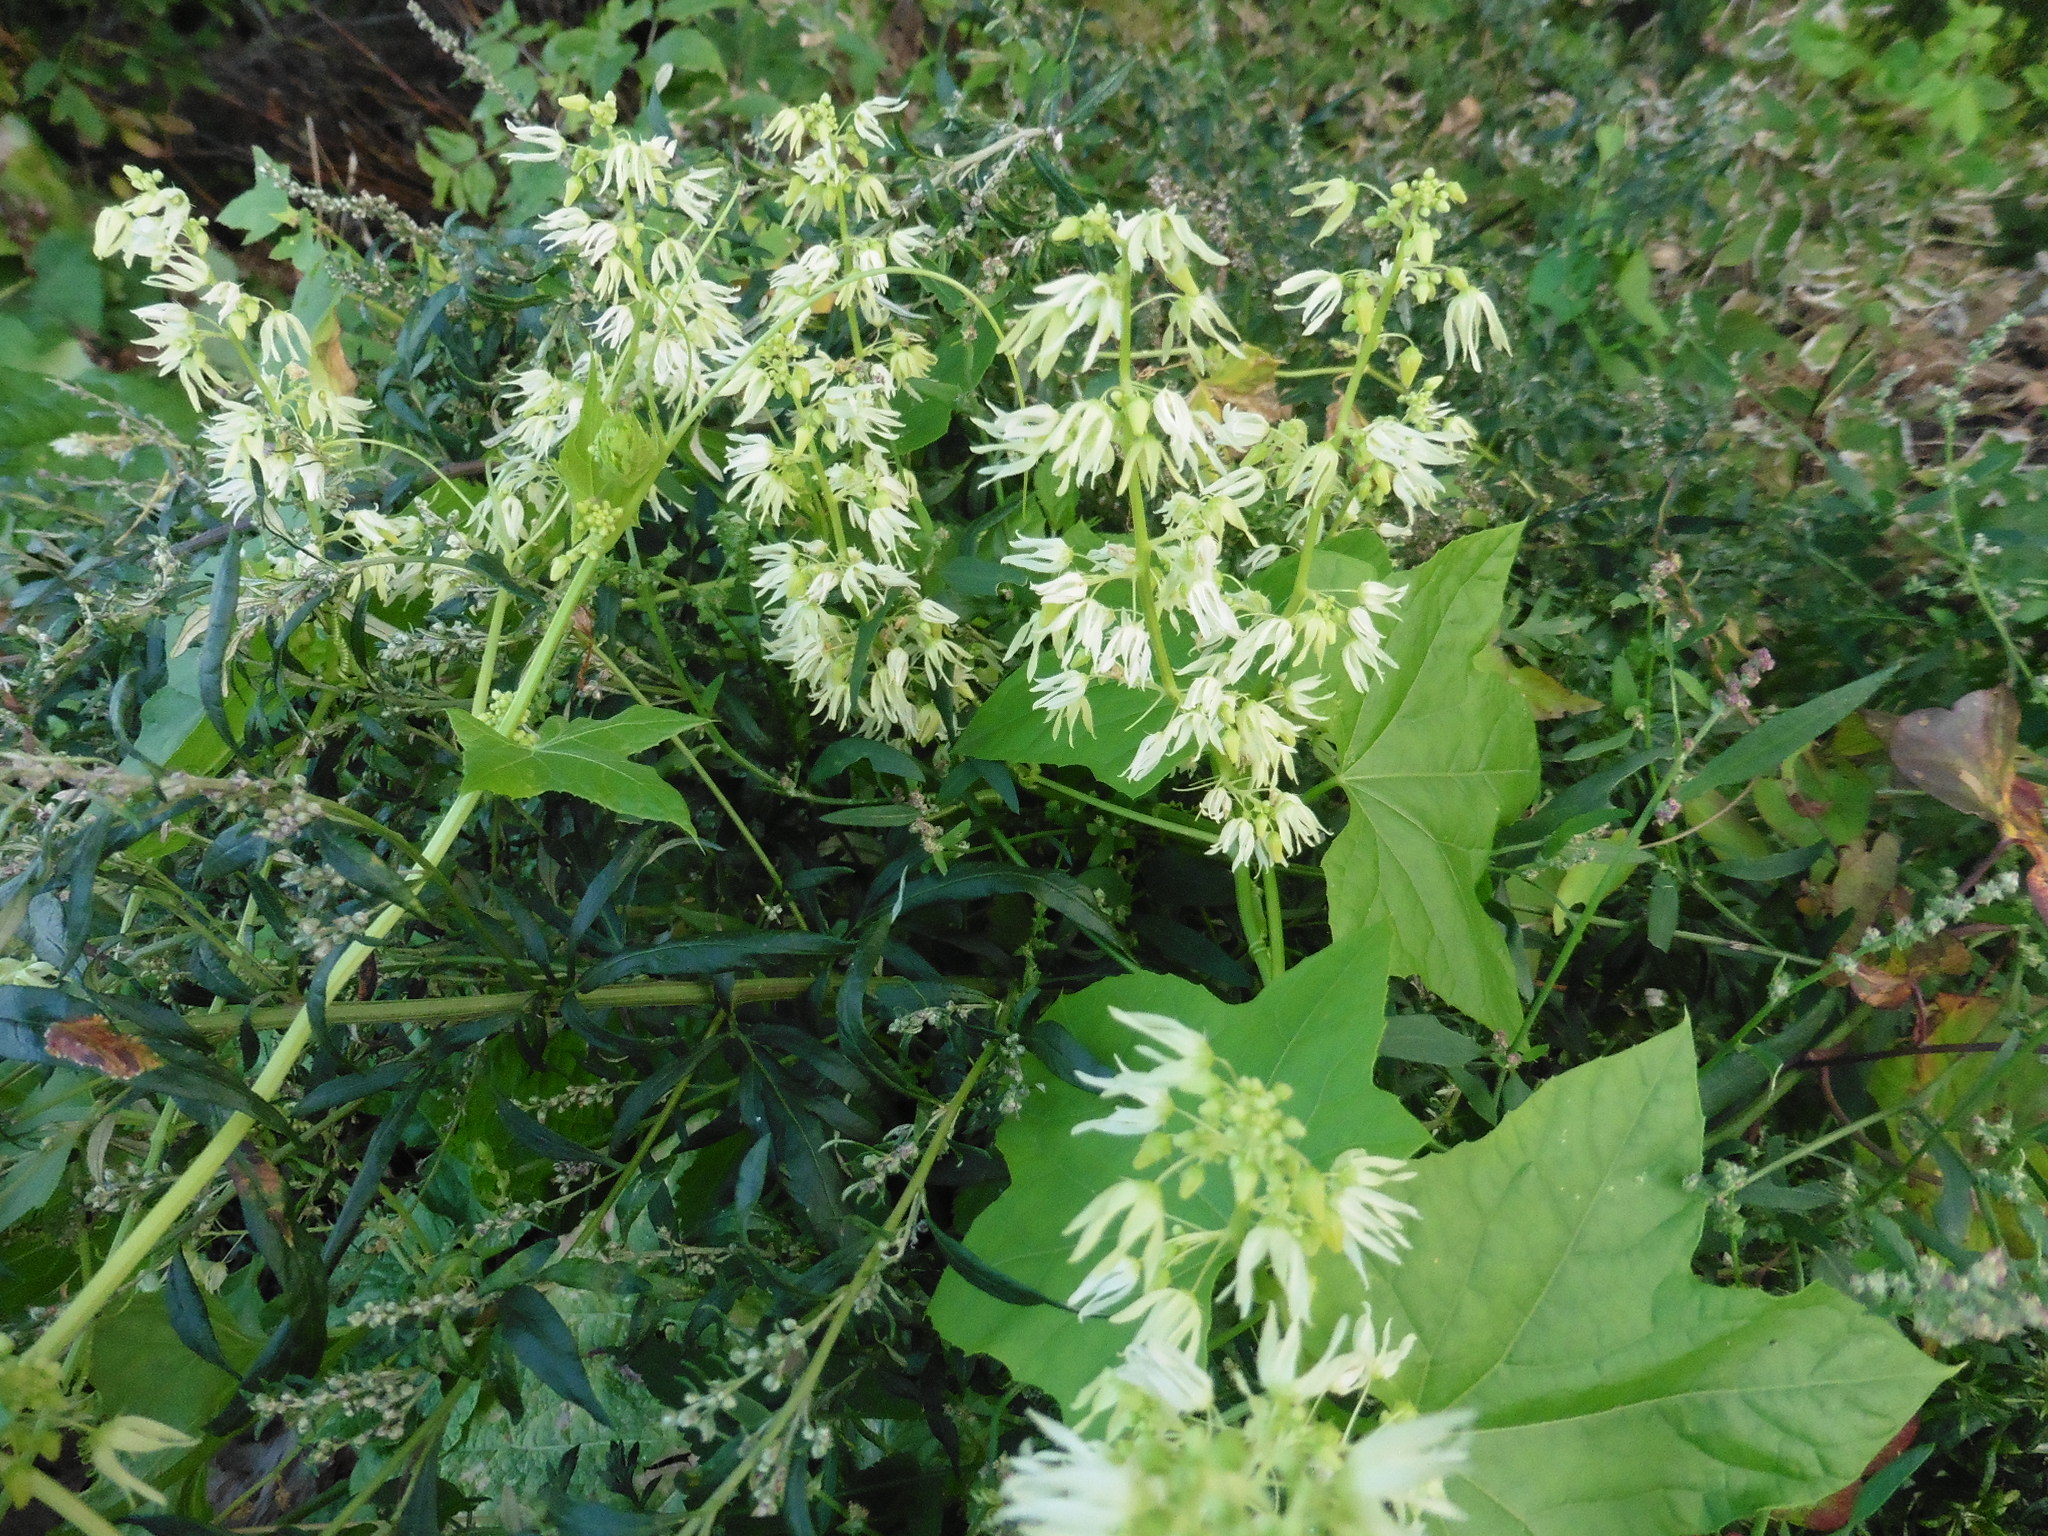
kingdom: Plantae
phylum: Tracheophyta
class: Magnoliopsida
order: Cucurbitales
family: Cucurbitaceae
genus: Echinocystis
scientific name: Echinocystis lobata
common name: Wild cucumber
